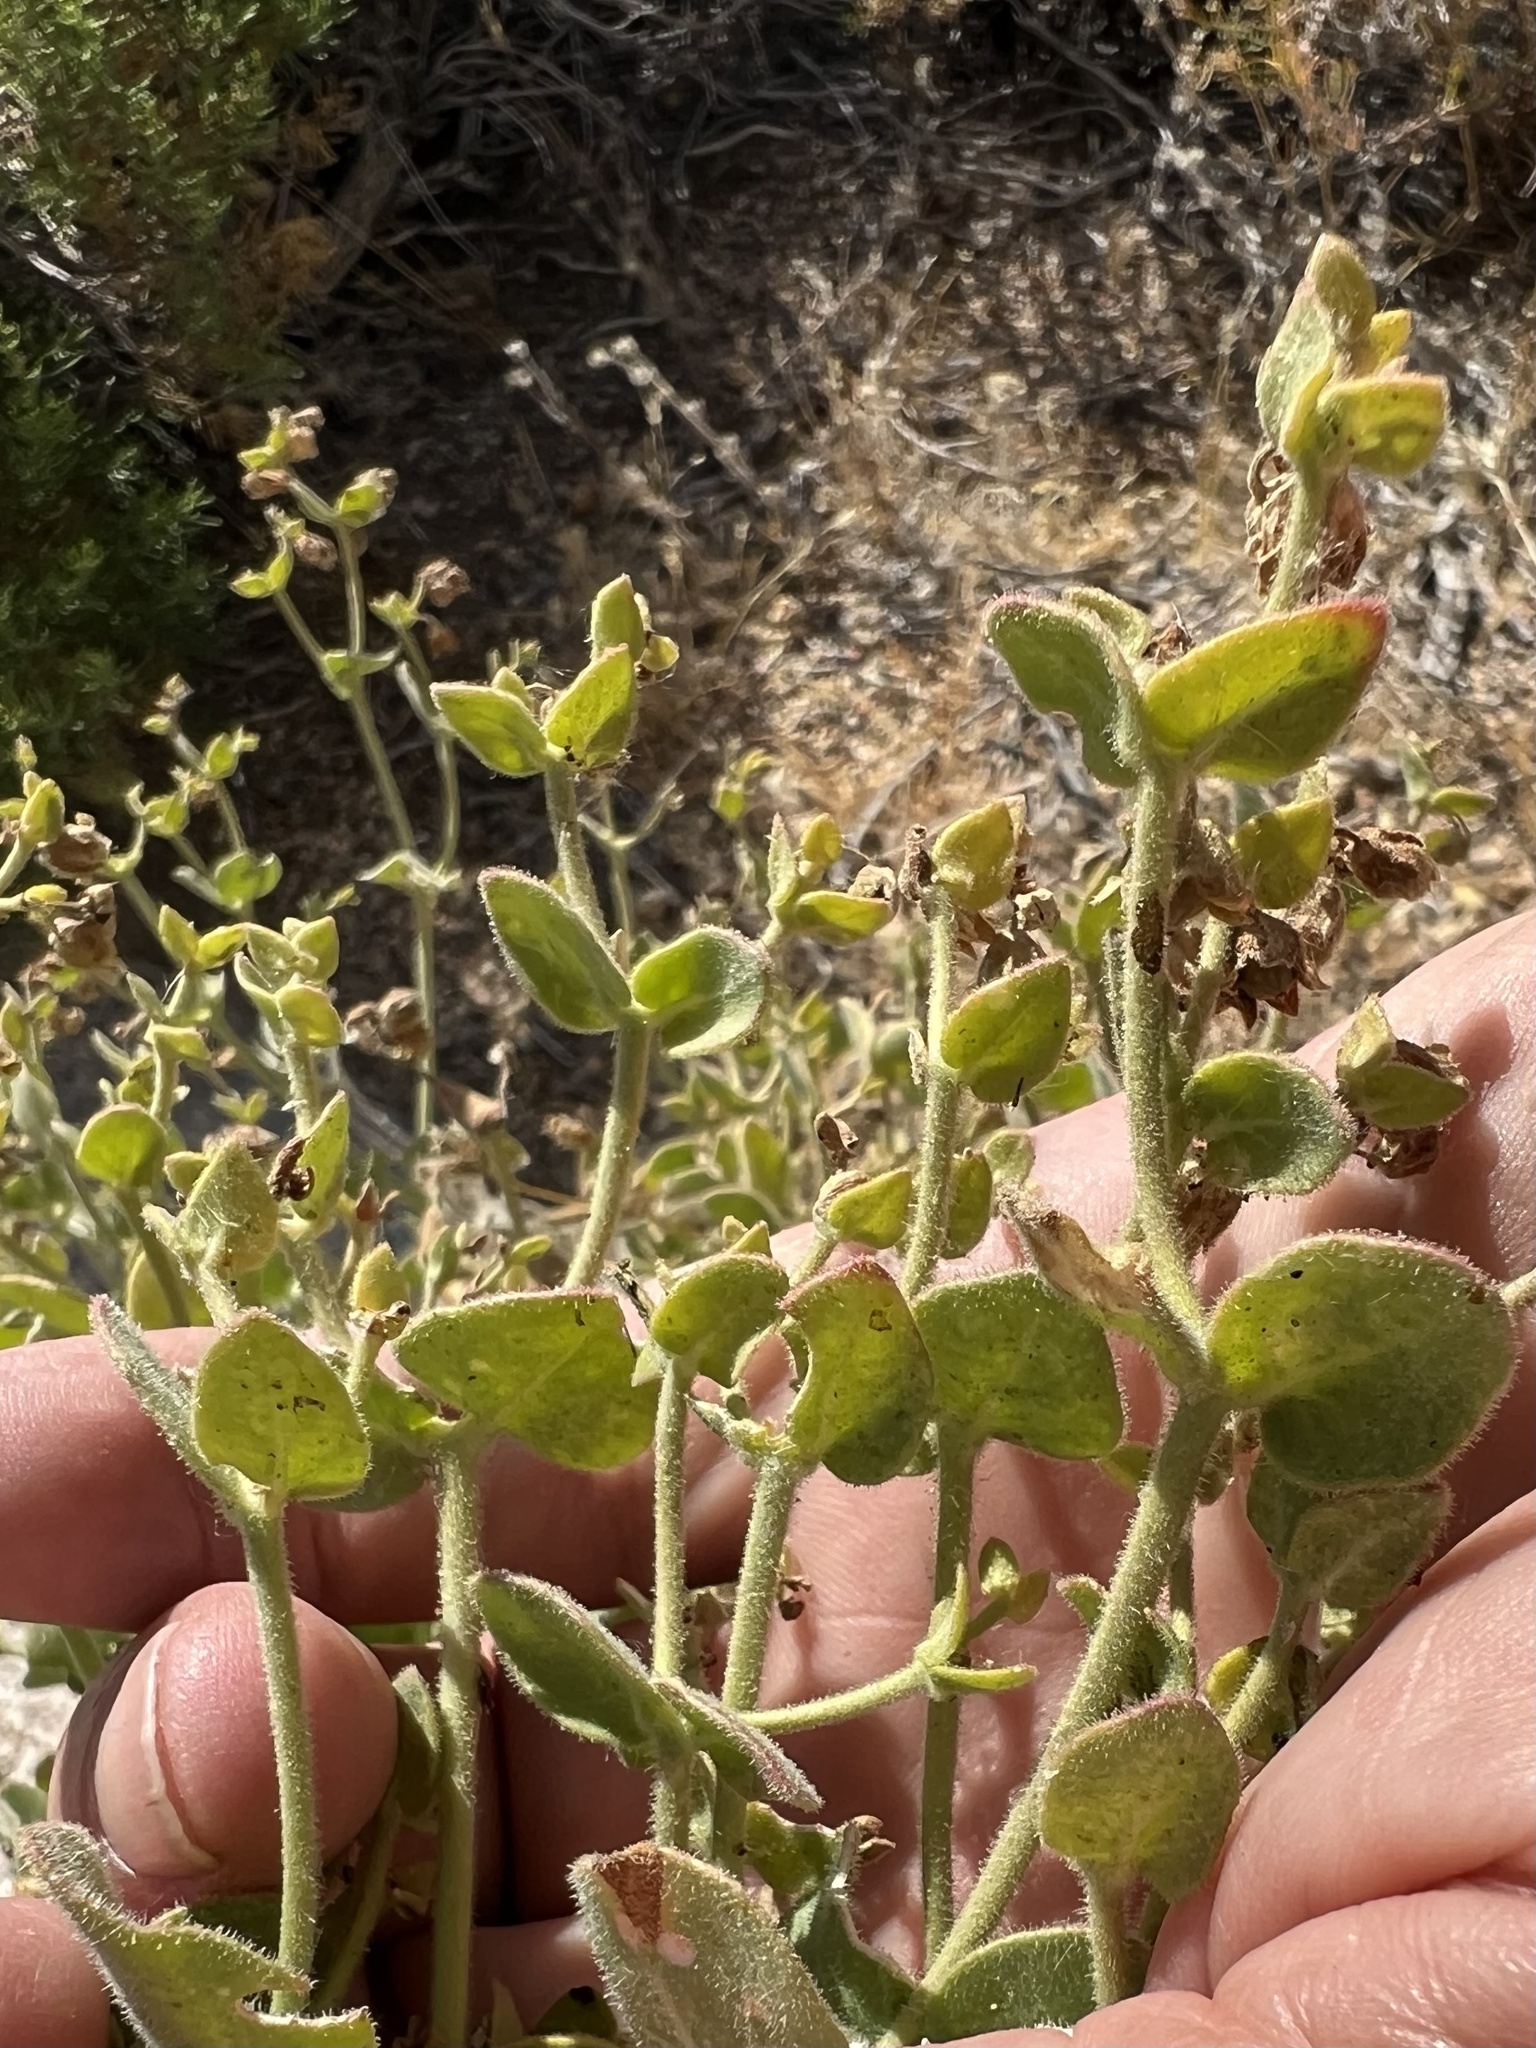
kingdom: Plantae
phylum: Tracheophyta
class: Magnoliopsida
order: Caryophyllales
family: Nyctaginaceae
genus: Mirabilis
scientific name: Mirabilis laevis
